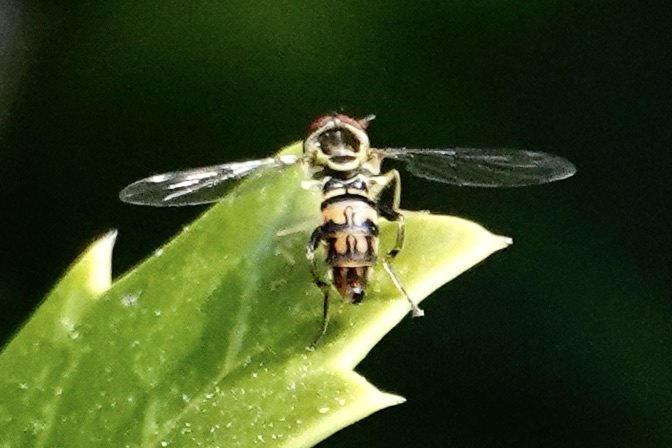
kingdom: Animalia
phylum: Arthropoda
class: Insecta
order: Diptera
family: Syrphidae
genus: Toxomerus
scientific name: Toxomerus geminatus
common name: Eastern calligrapher
